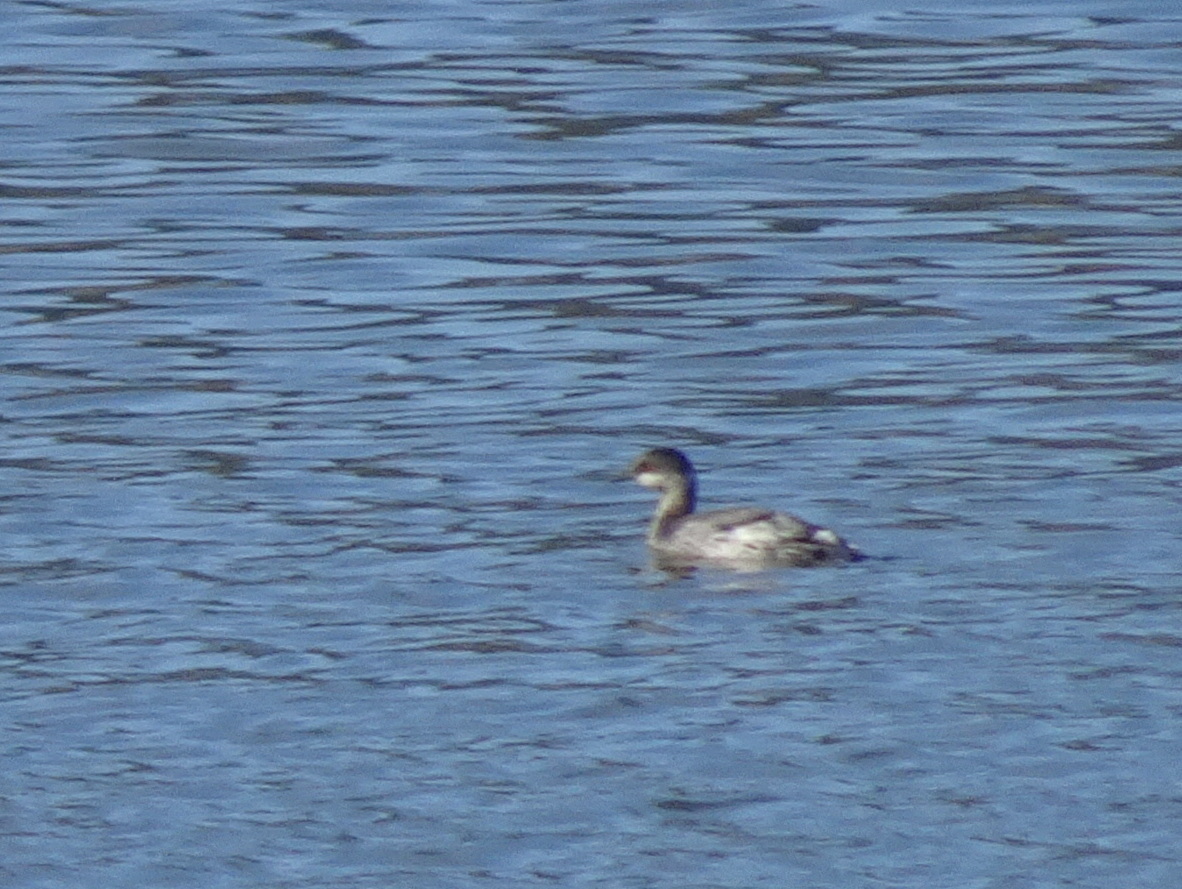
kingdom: Animalia
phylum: Chordata
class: Aves
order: Podicipediformes
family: Podicipedidae
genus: Podiceps
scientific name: Podiceps nigricollis
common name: Black-necked grebe
